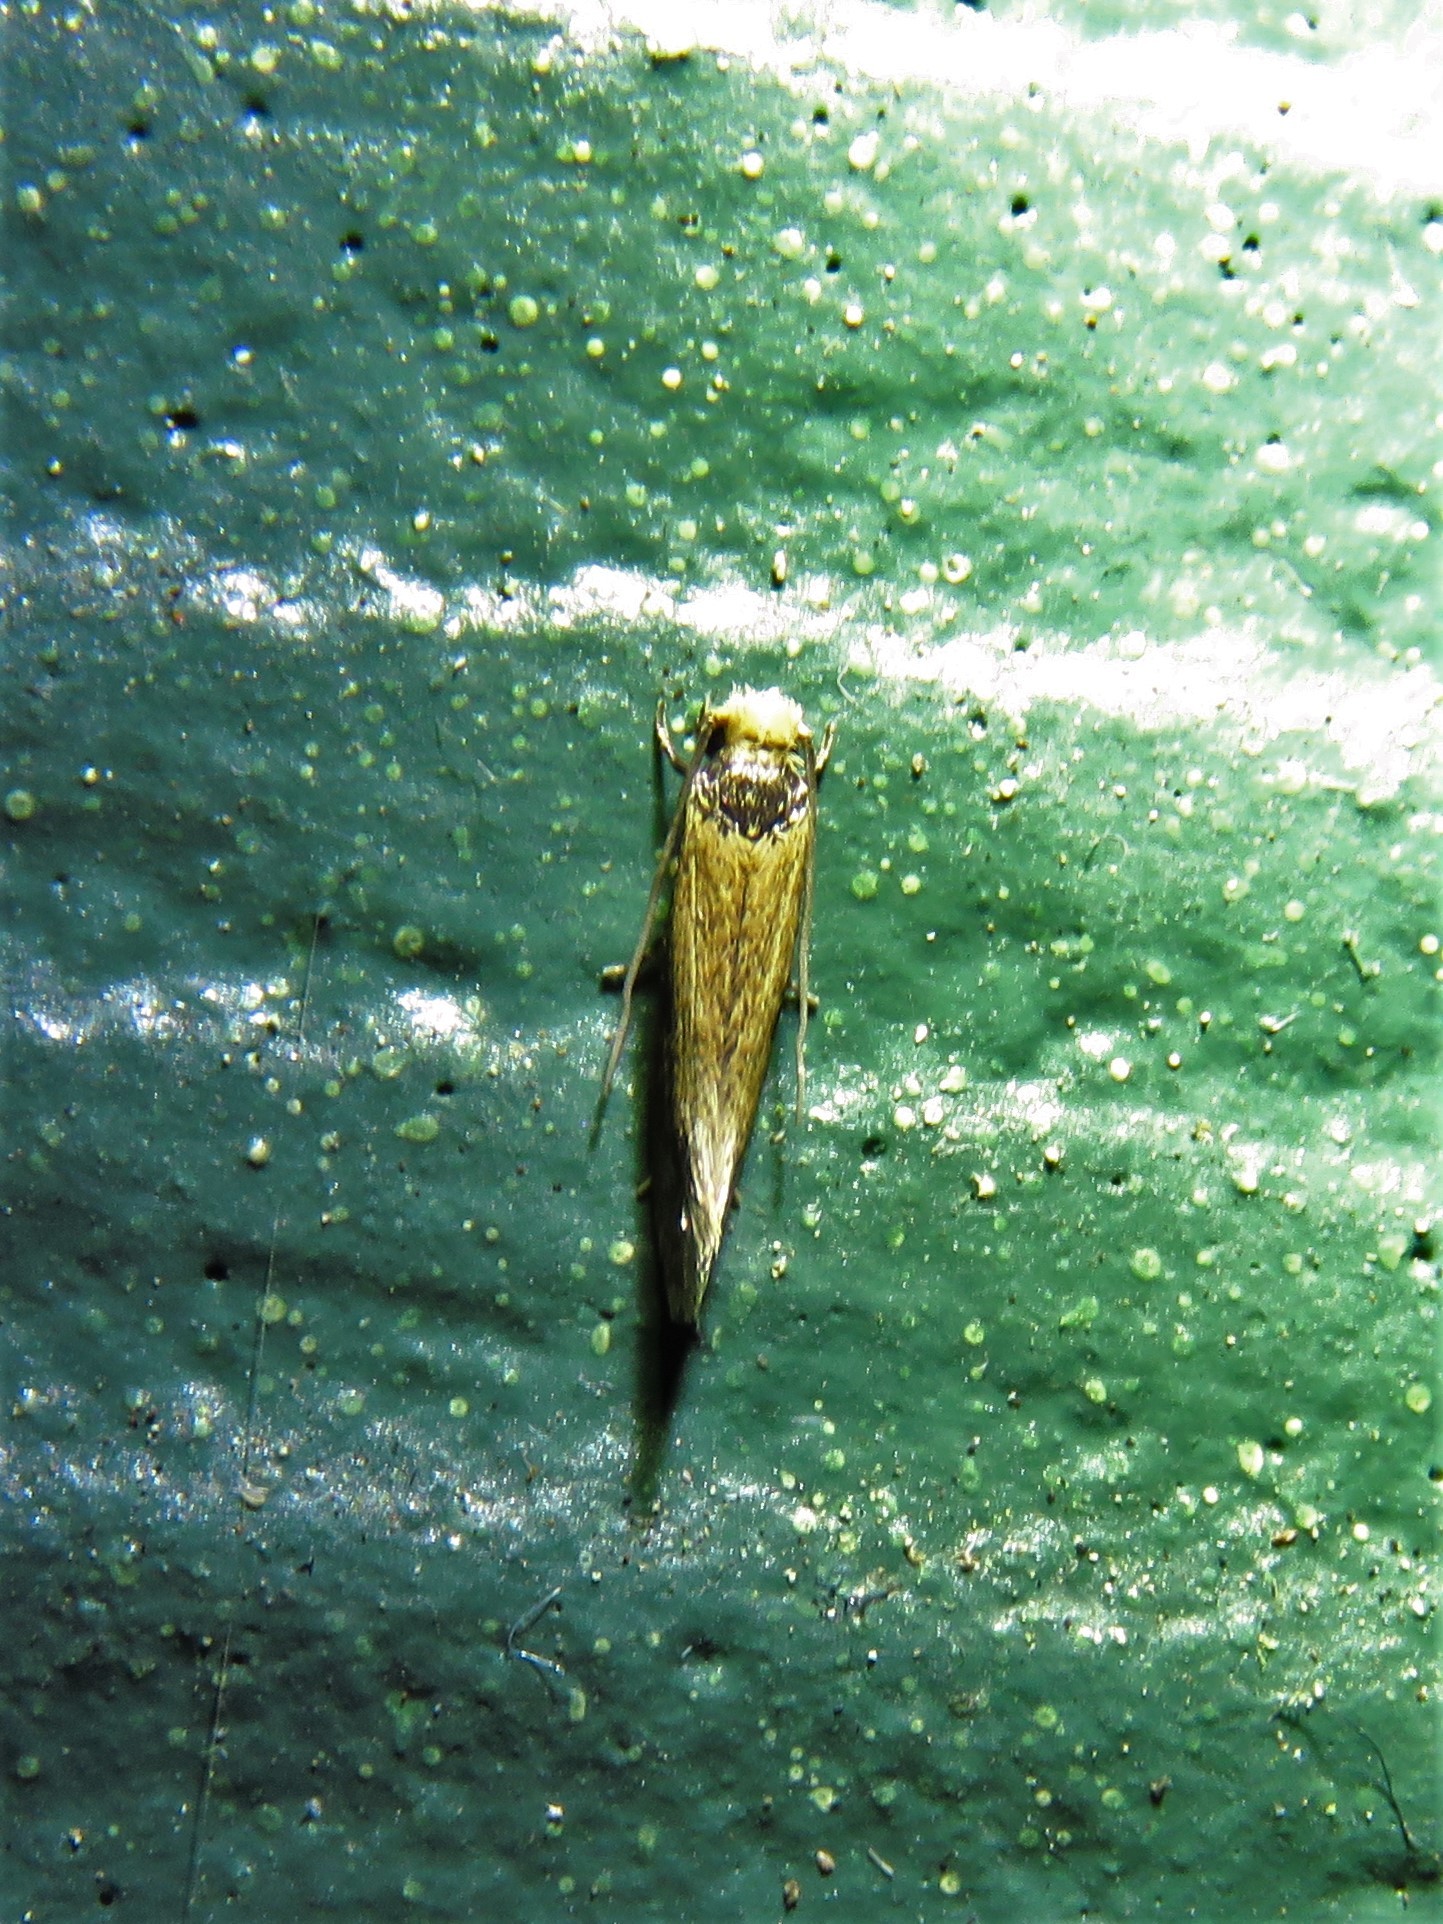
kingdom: Animalia
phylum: Arthropoda
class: Insecta
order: Lepidoptera
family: Meessiidae
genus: Homostinea
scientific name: Homostinea curviliniella
